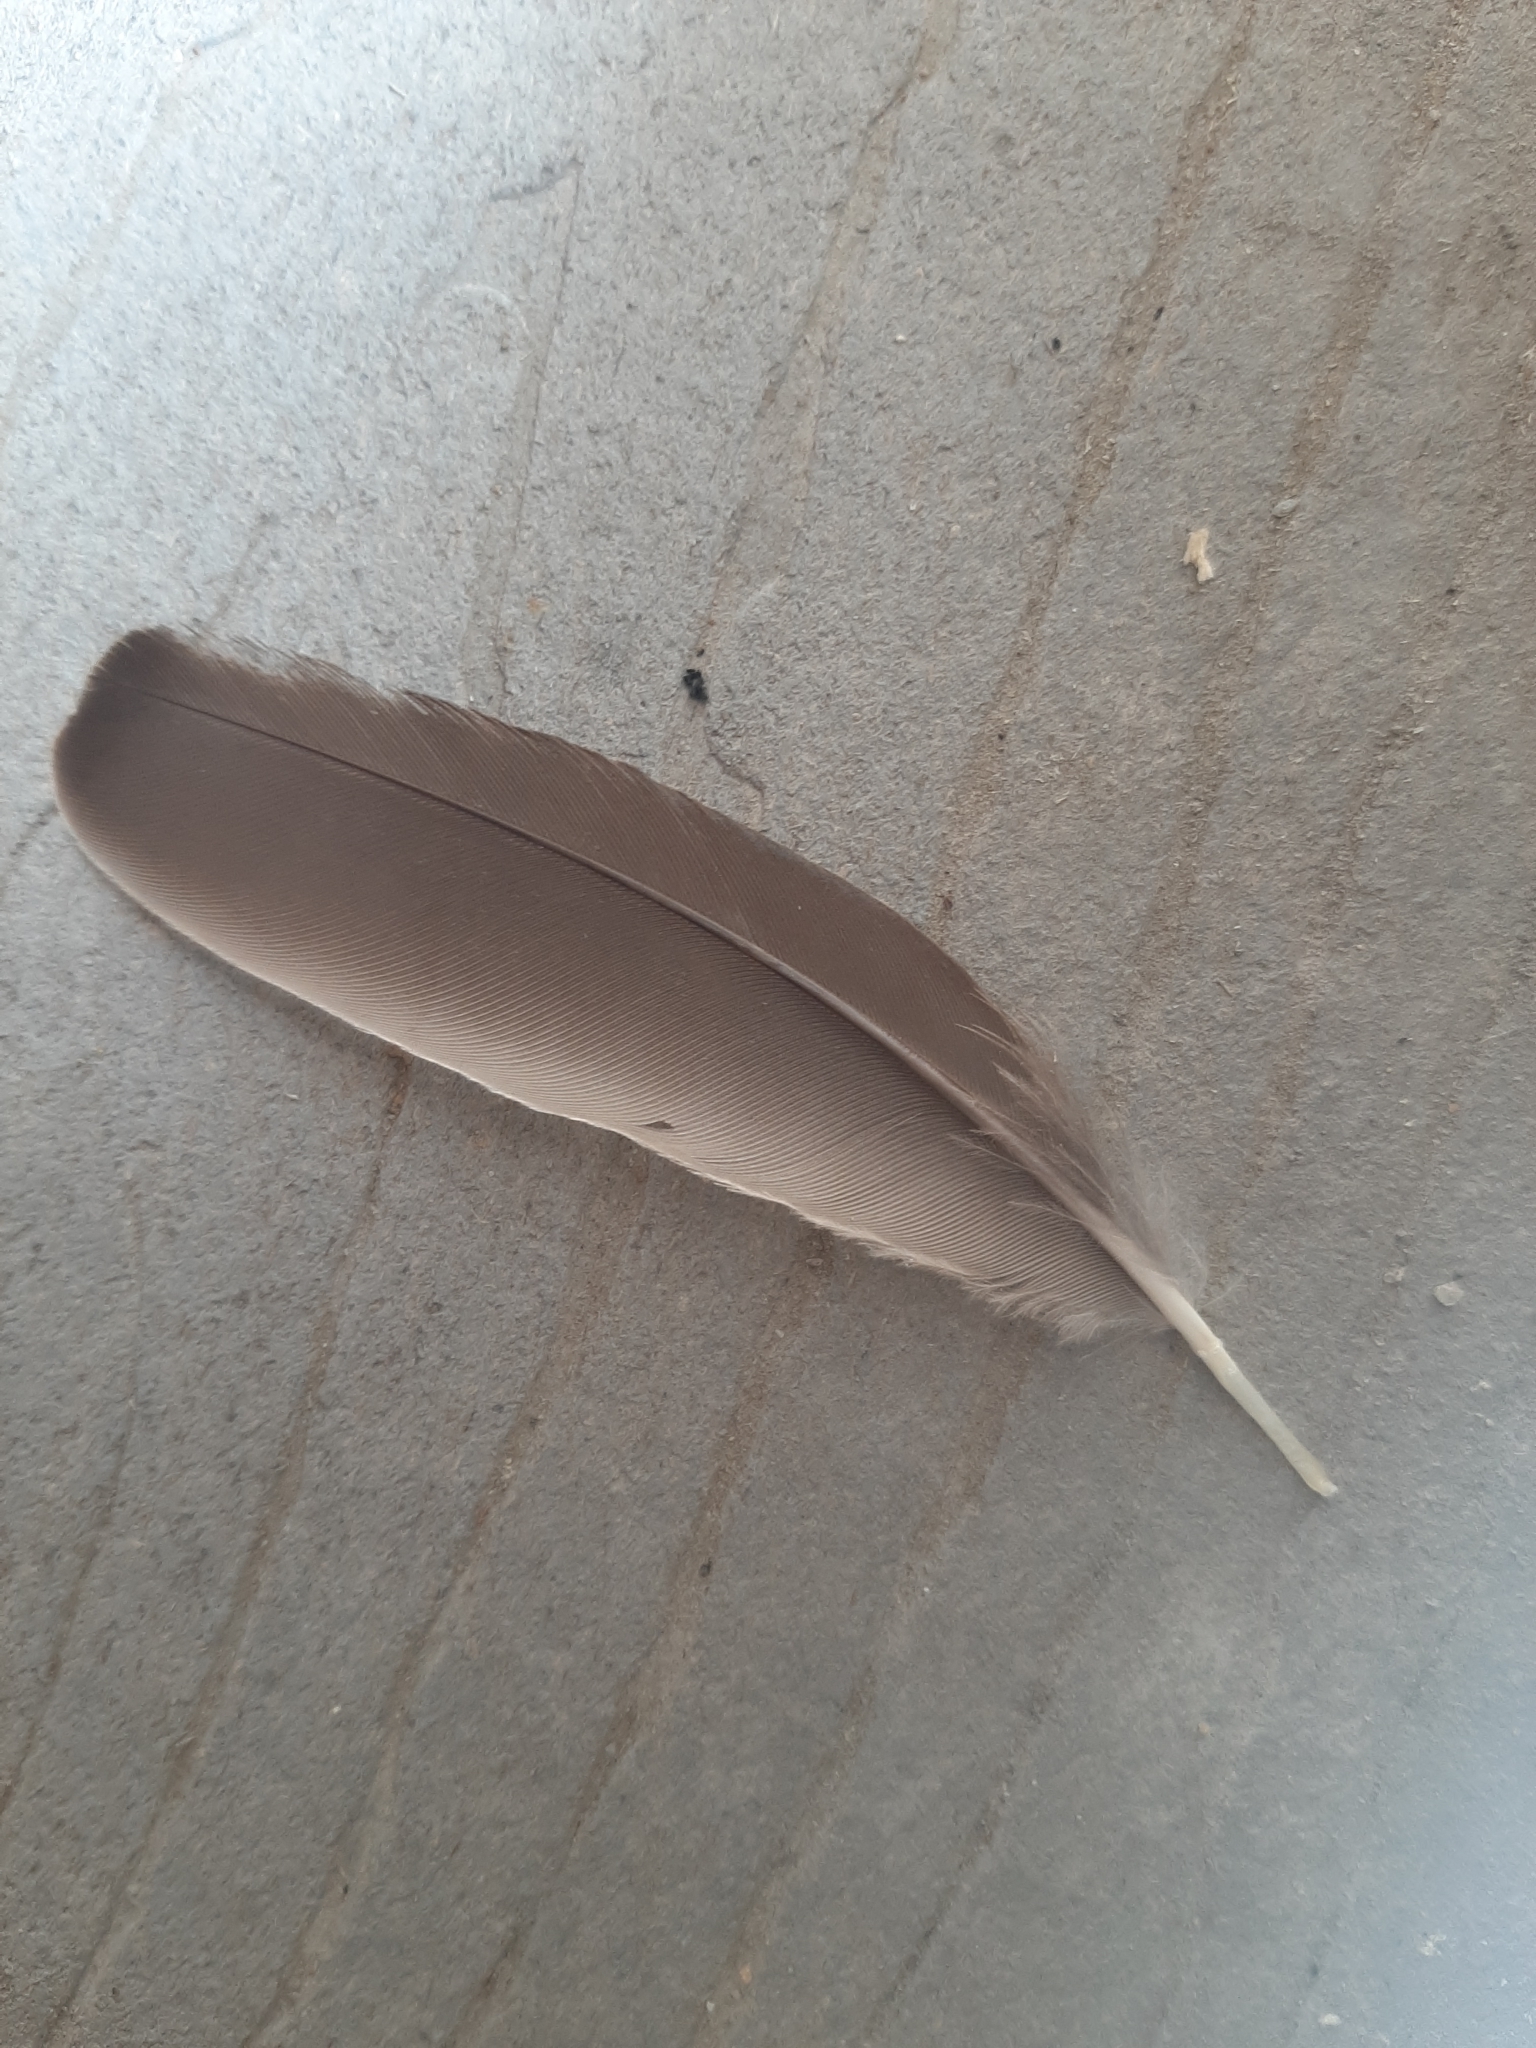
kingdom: Animalia
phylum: Chordata
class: Aves
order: Passeriformes
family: Sturnidae
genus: Sturnus
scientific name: Sturnus vulgaris
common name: Common starling
